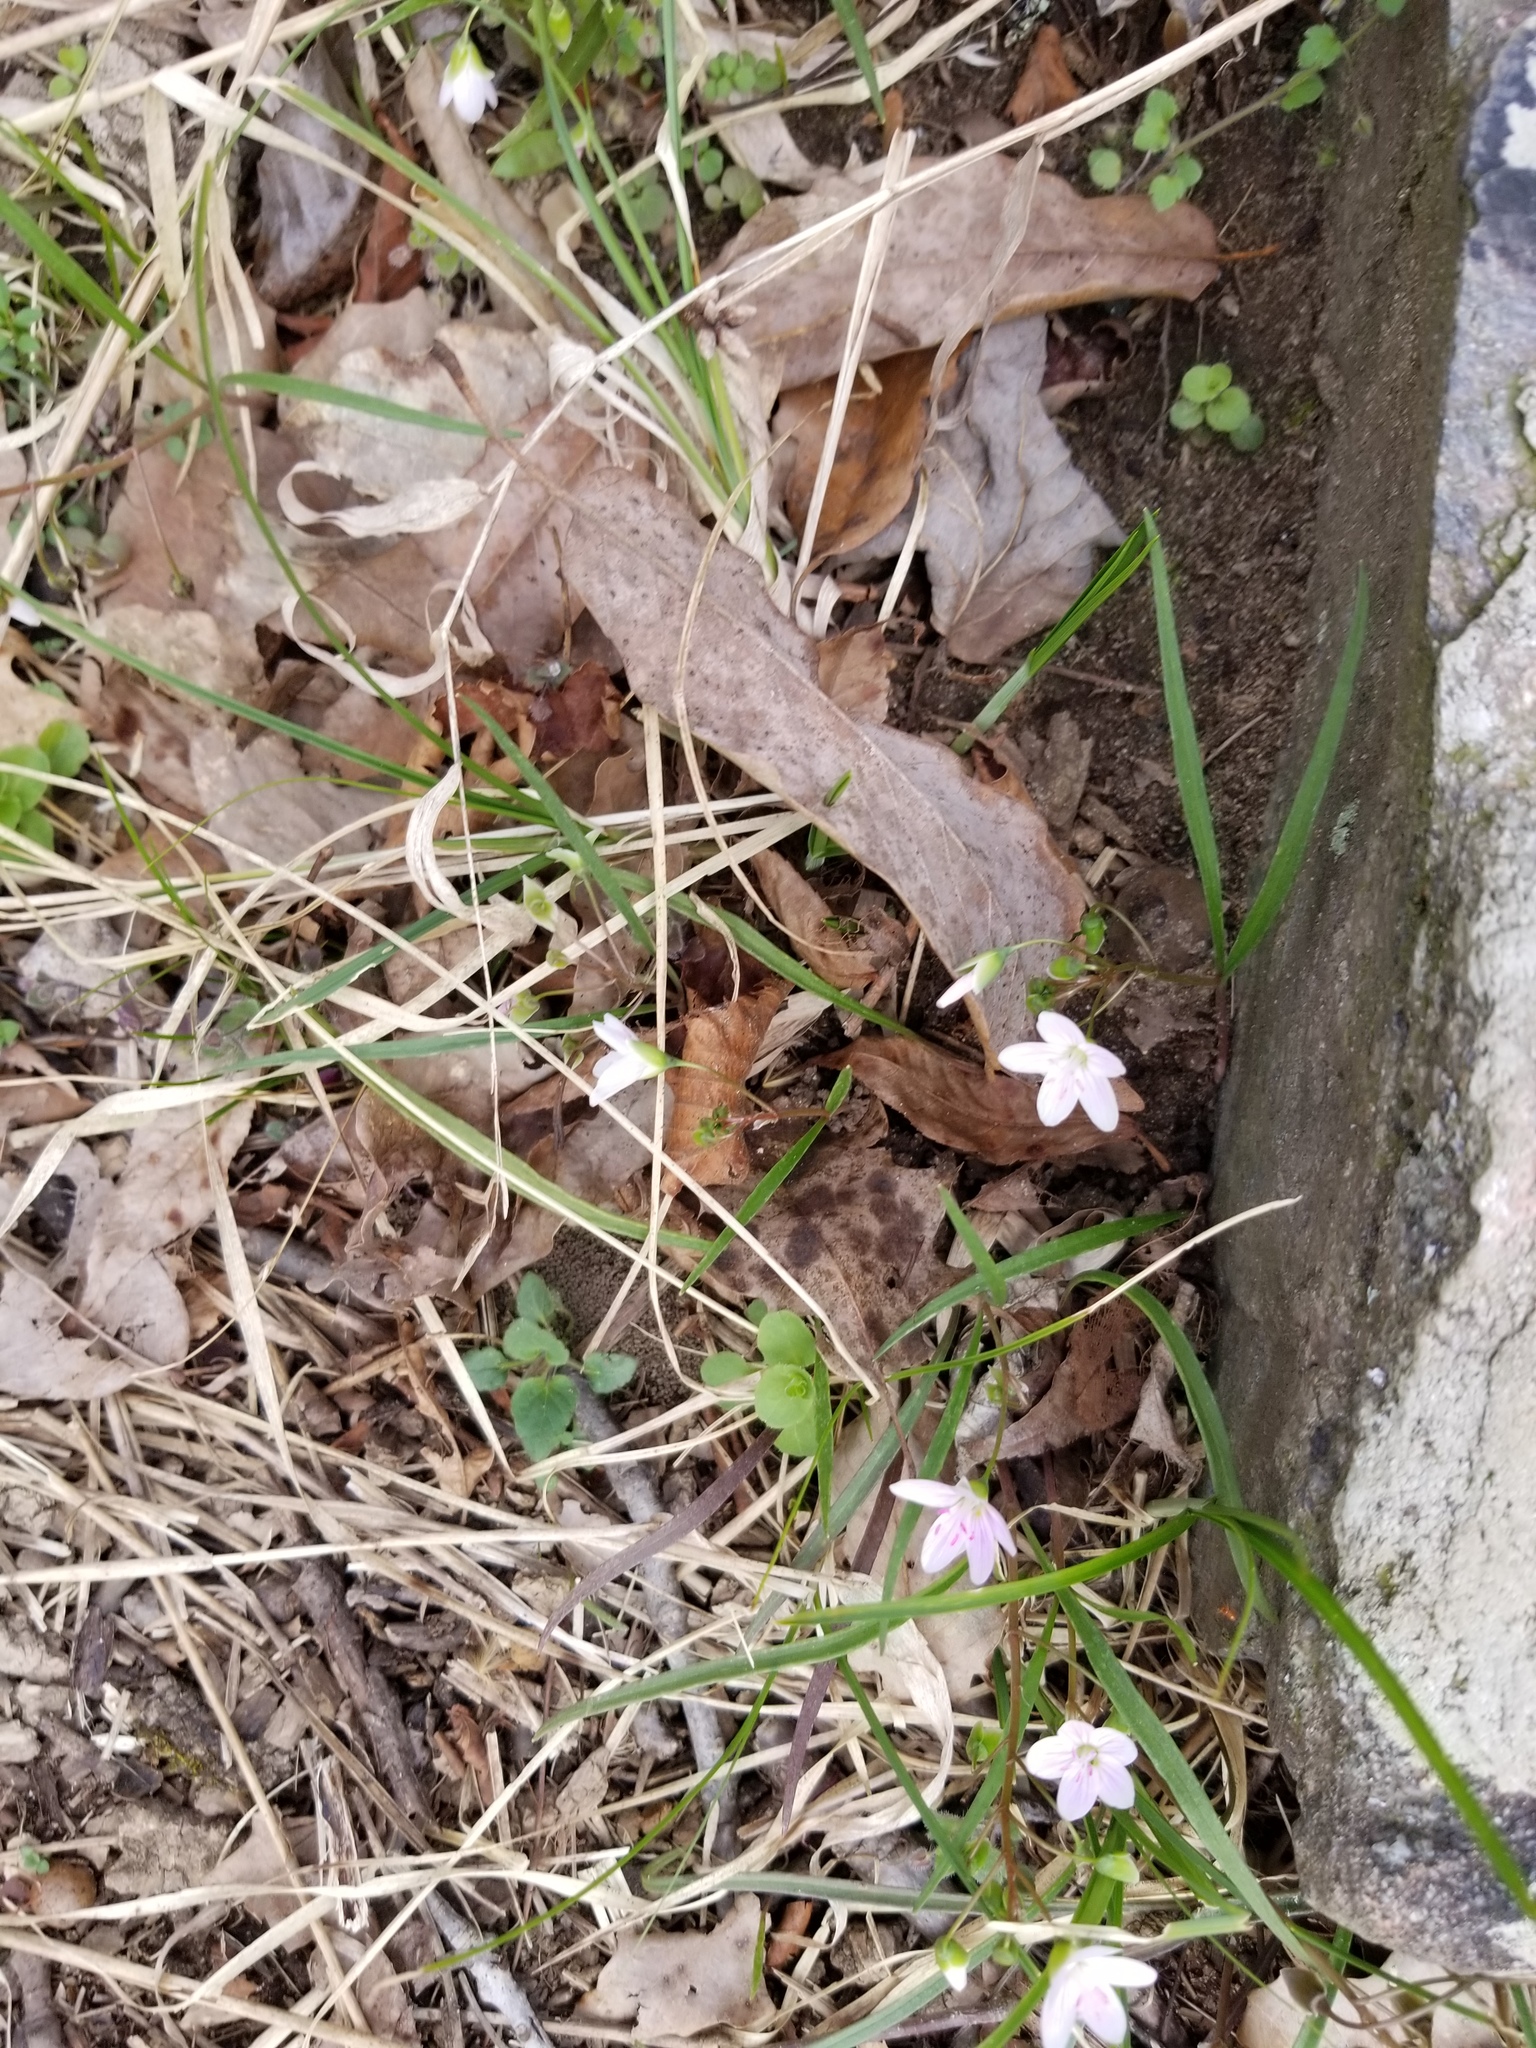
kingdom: Plantae
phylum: Tracheophyta
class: Magnoliopsida
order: Caryophyllales
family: Montiaceae
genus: Claytonia
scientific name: Claytonia virginica
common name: Virginia springbeauty
